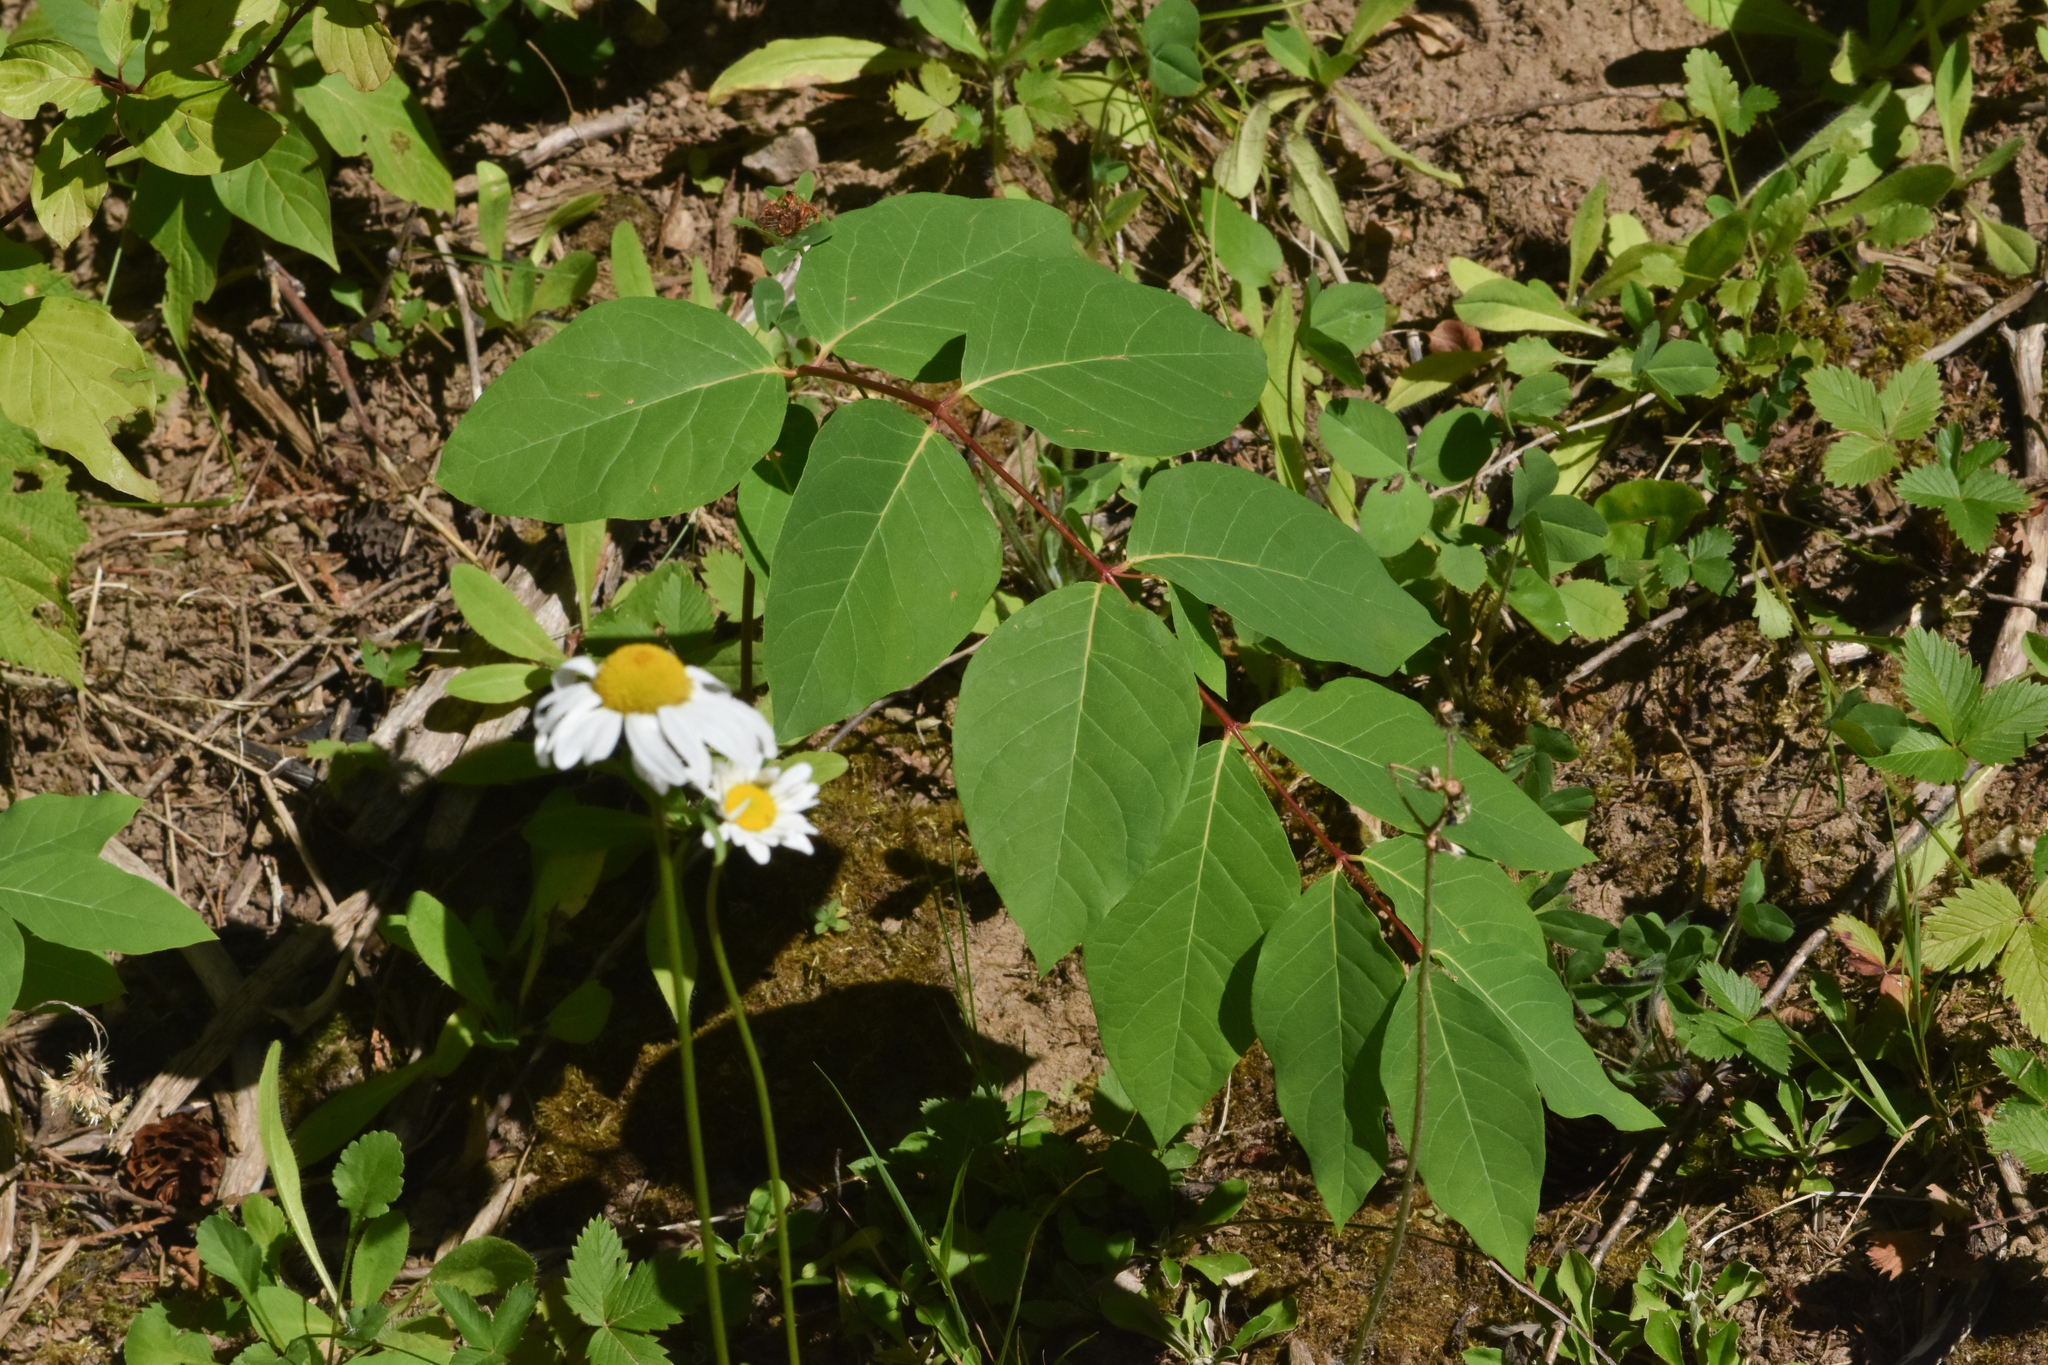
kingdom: Plantae
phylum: Tracheophyta
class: Magnoliopsida
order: Gentianales
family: Apocynaceae
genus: Apocynum
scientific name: Apocynum androsaemifolium
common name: Spreading dogbane
